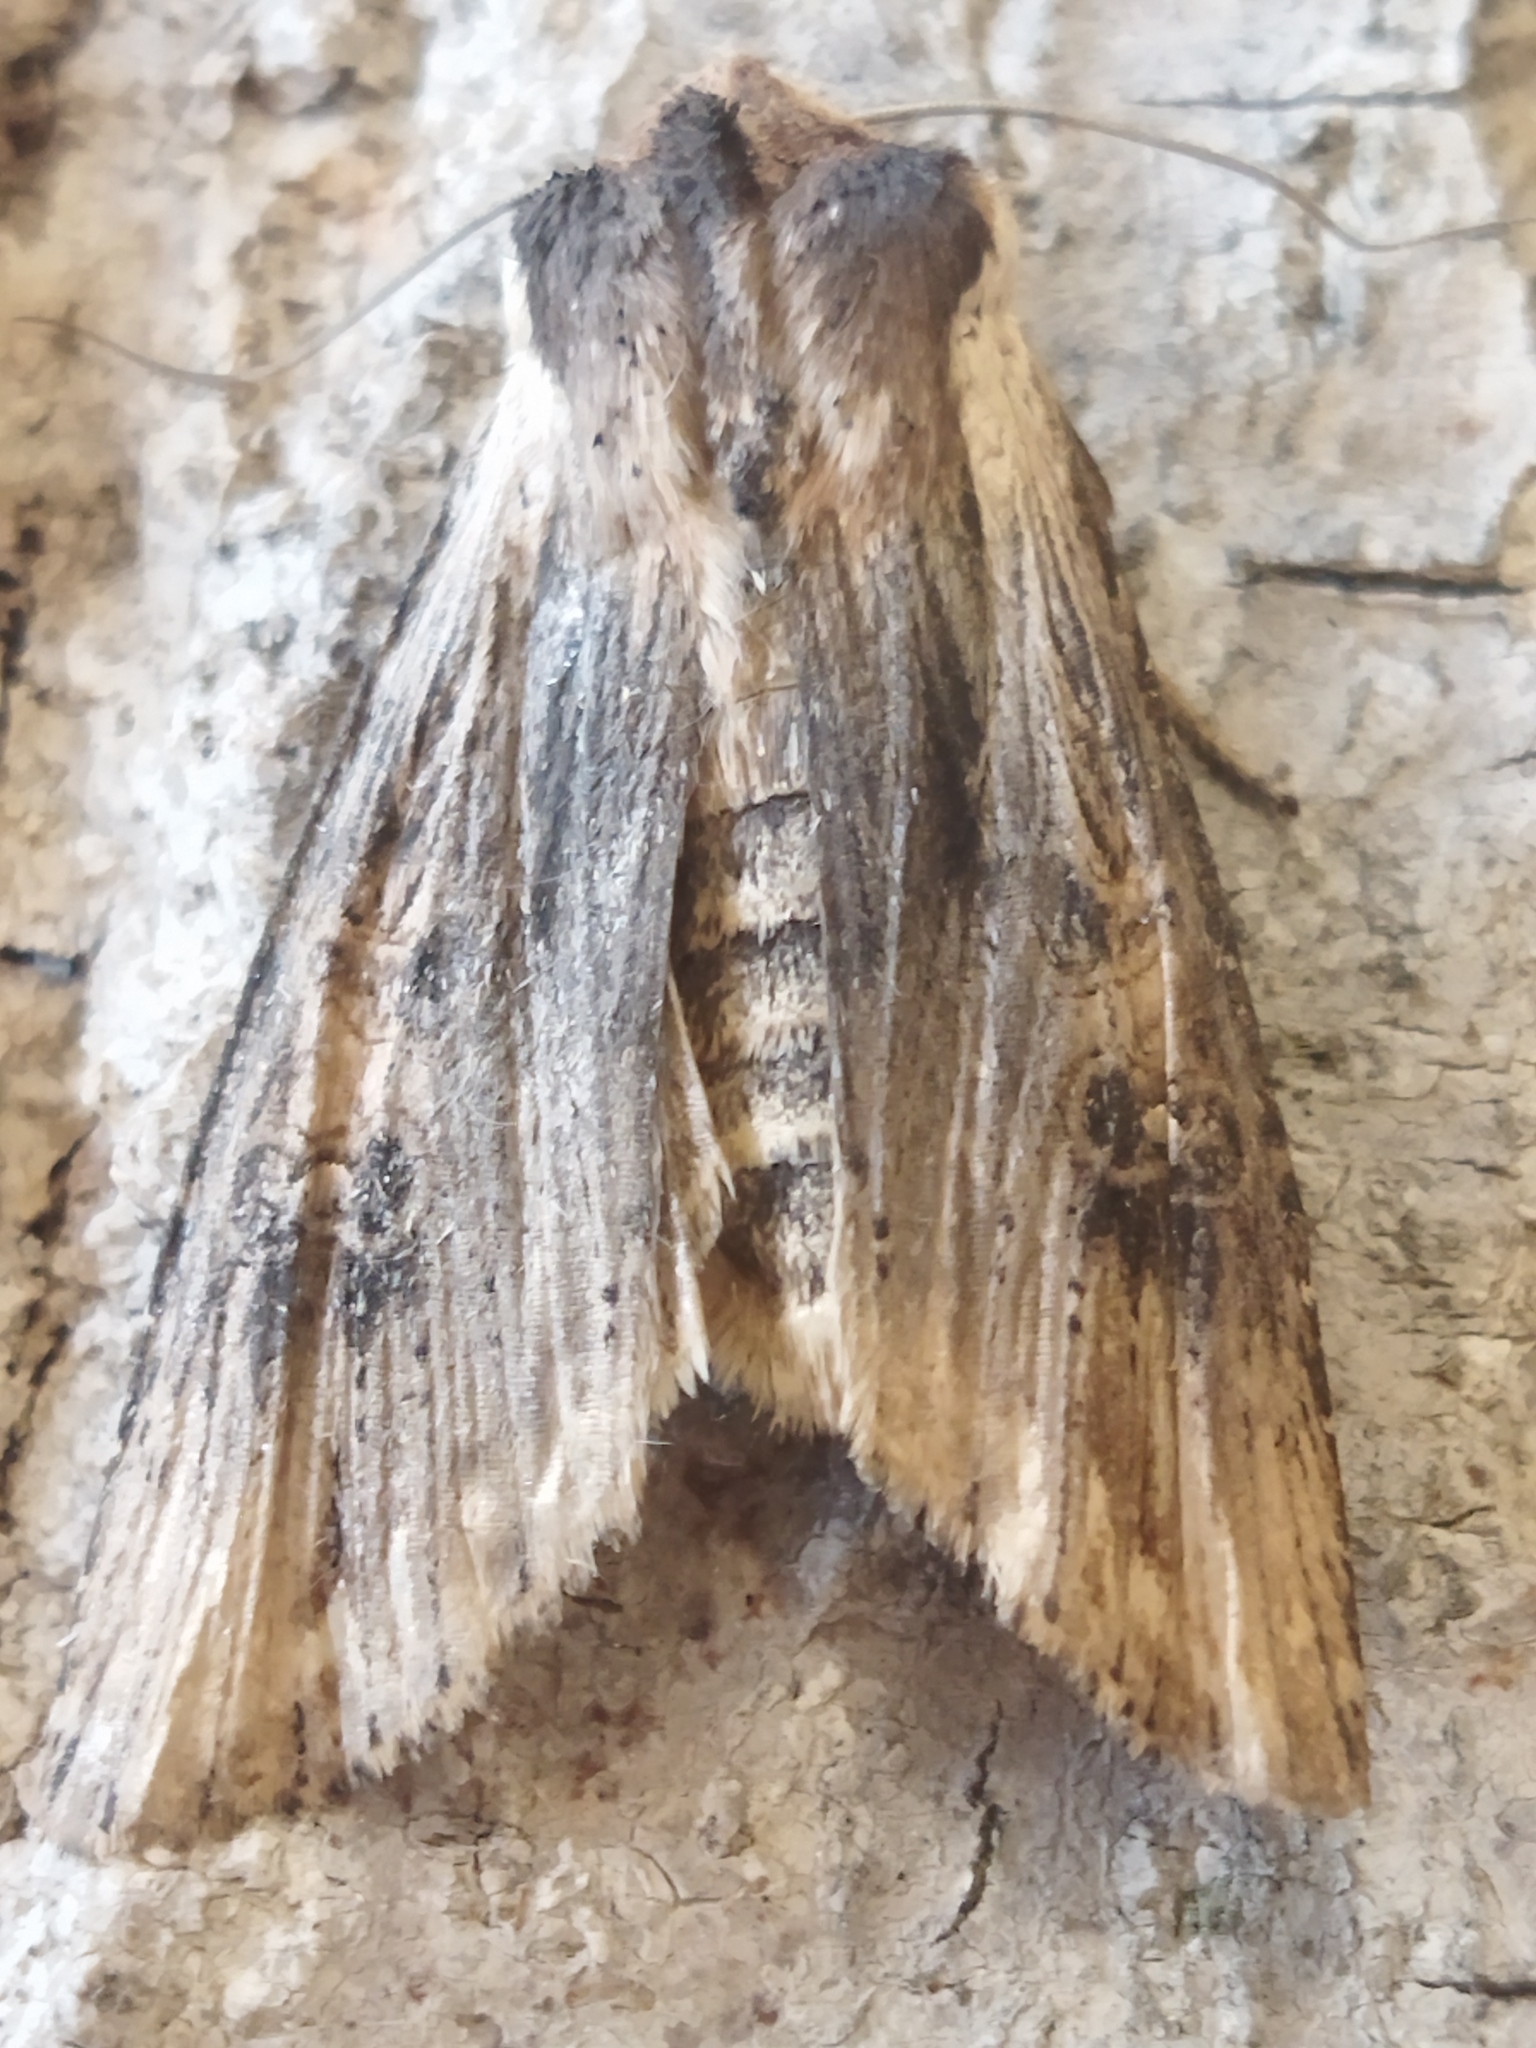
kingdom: Animalia
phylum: Arthropoda
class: Insecta
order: Lepidoptera
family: Noctuidae
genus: Xylena
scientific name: Xylena exsoleta
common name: Sword-grass
